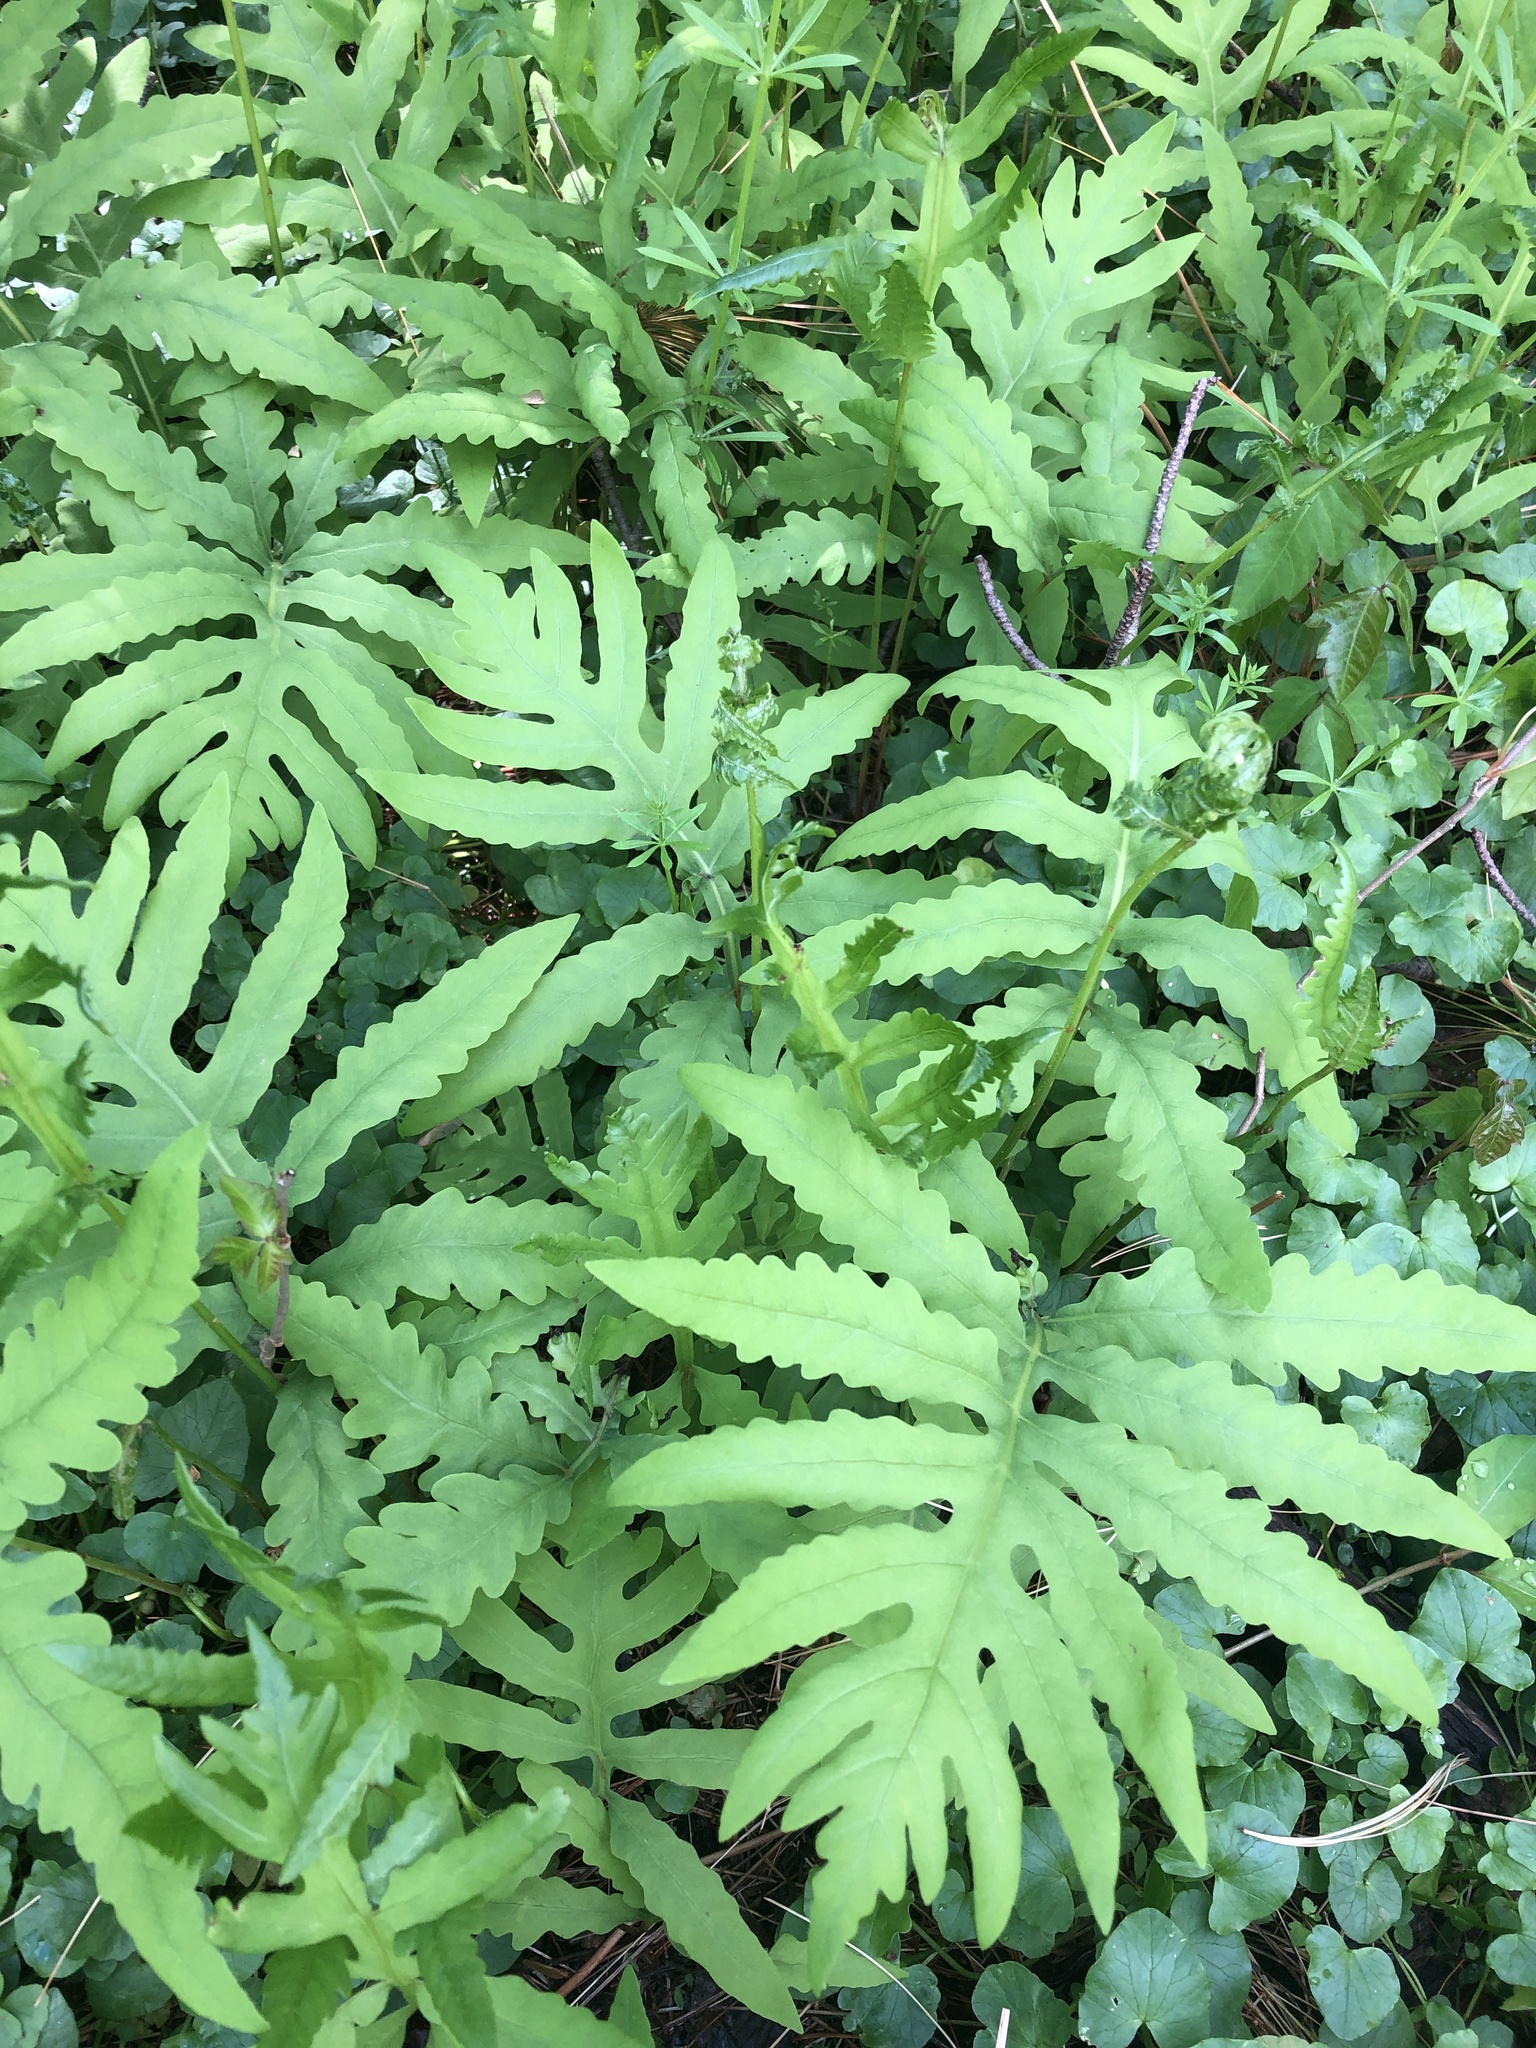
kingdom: Plantae
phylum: Tracheophyta
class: Polypodiopsida
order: Polypodiales
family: Onocleaceae
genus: Onoclea
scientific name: Onoclea sensibilis
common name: Sensitive fern
